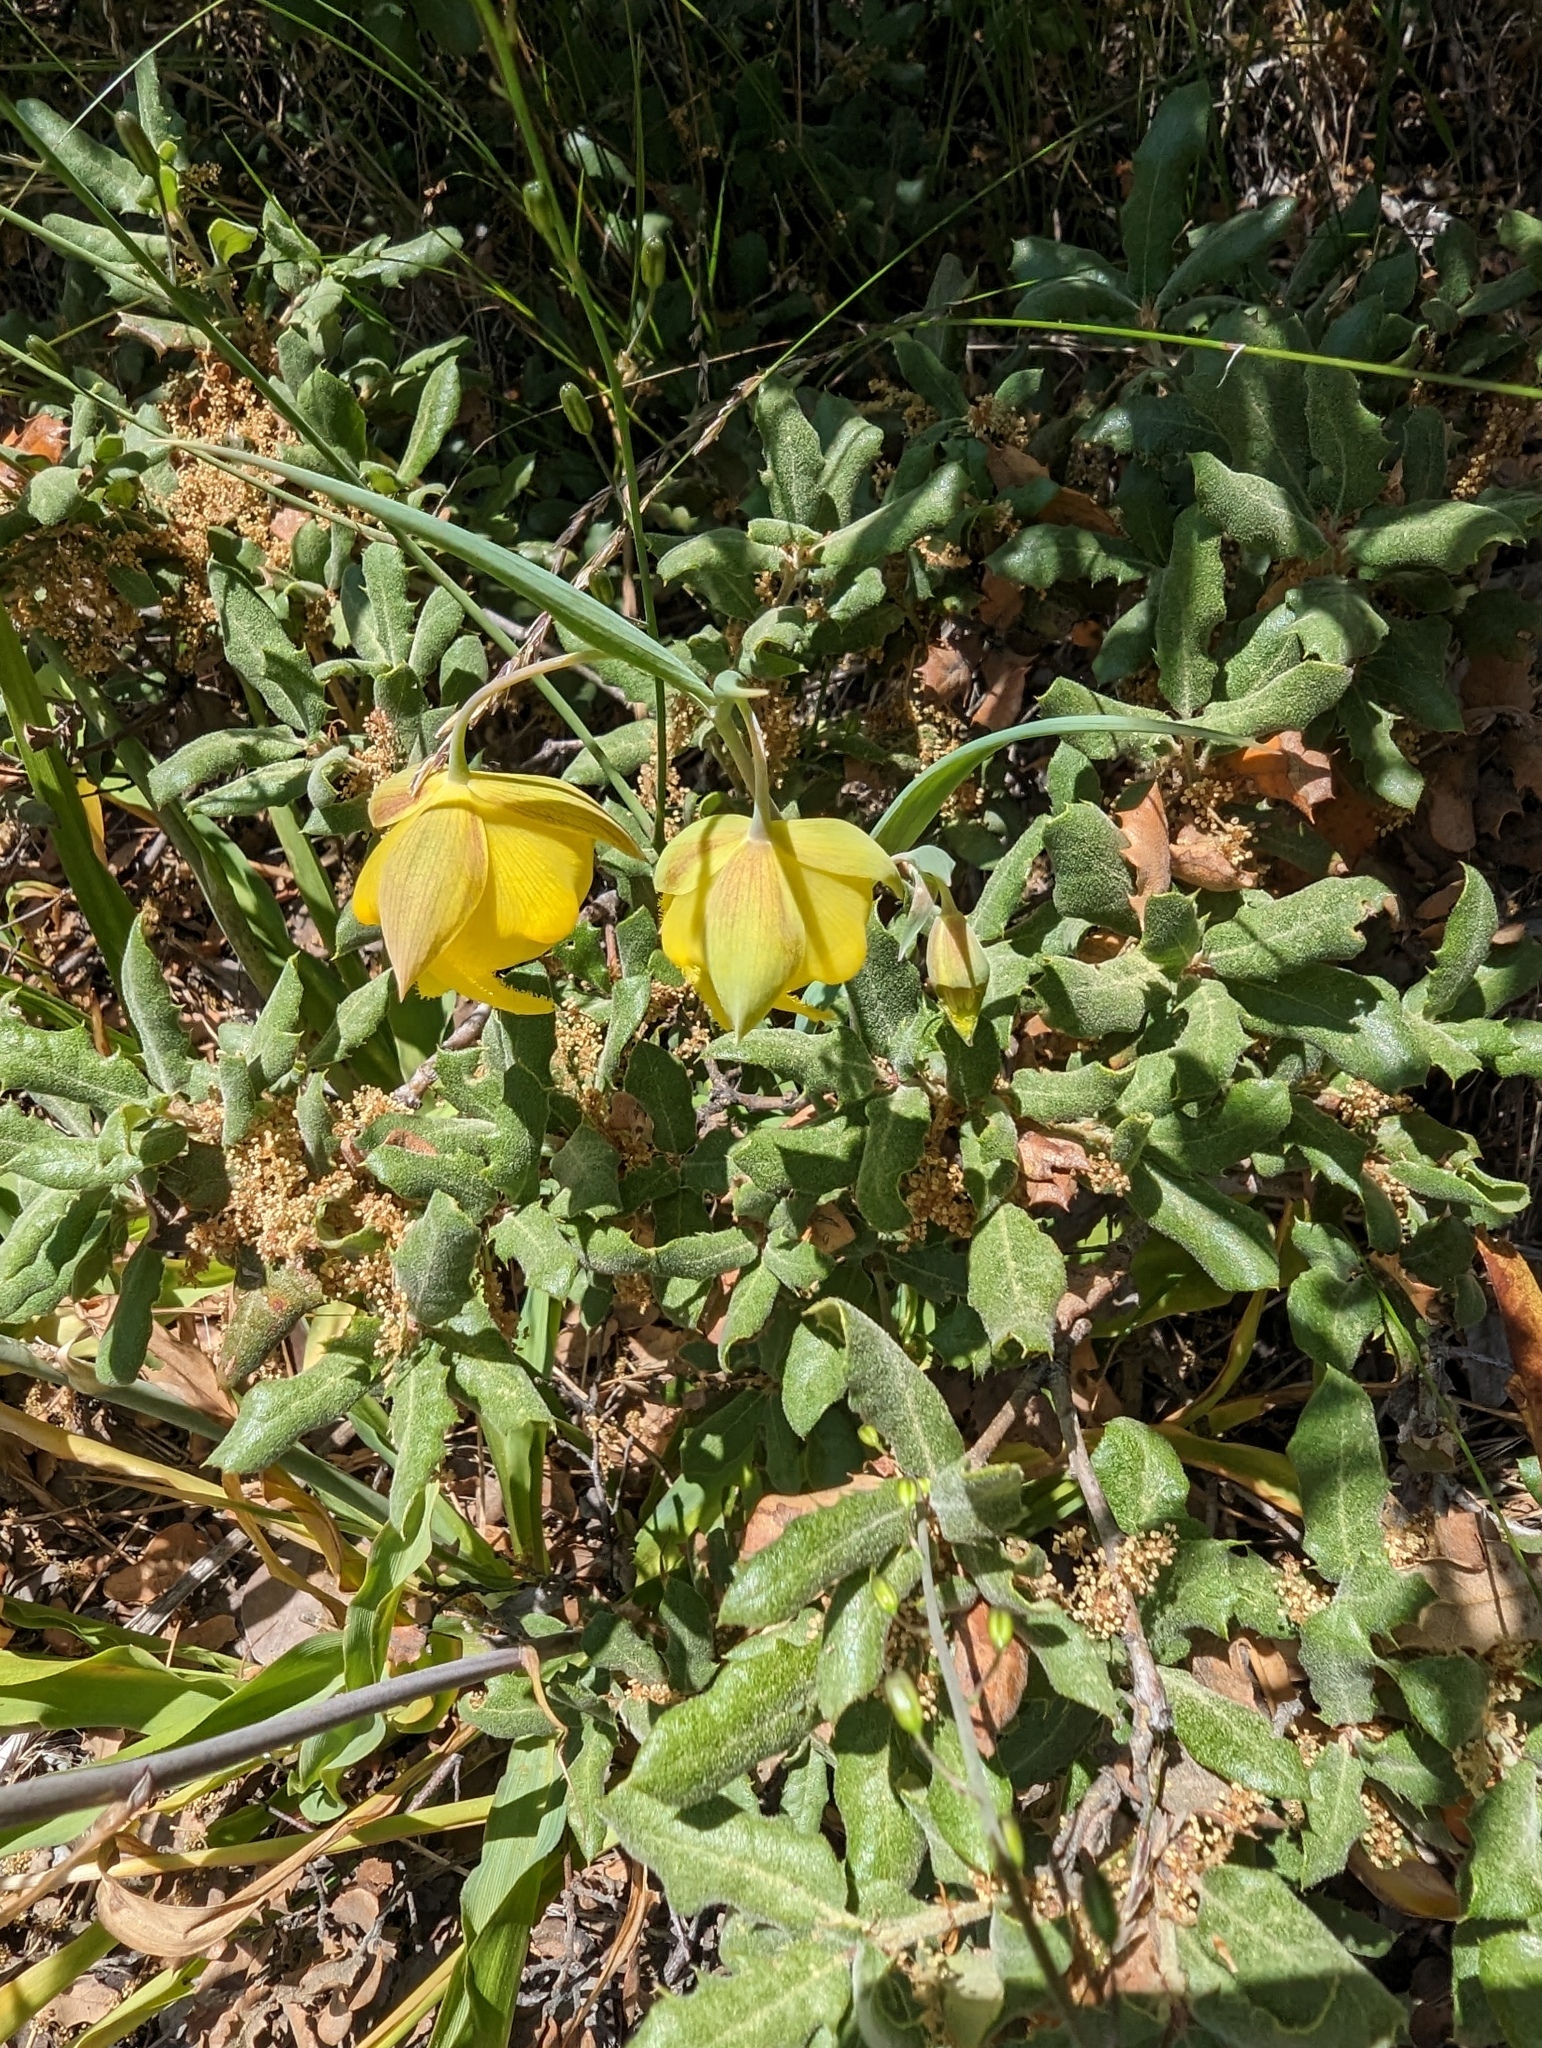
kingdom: Plantae
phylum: Tracheophyta
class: Liliopsida
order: Liliales
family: Liliaceae
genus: Calochortus
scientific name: Calochortus pulchellus
